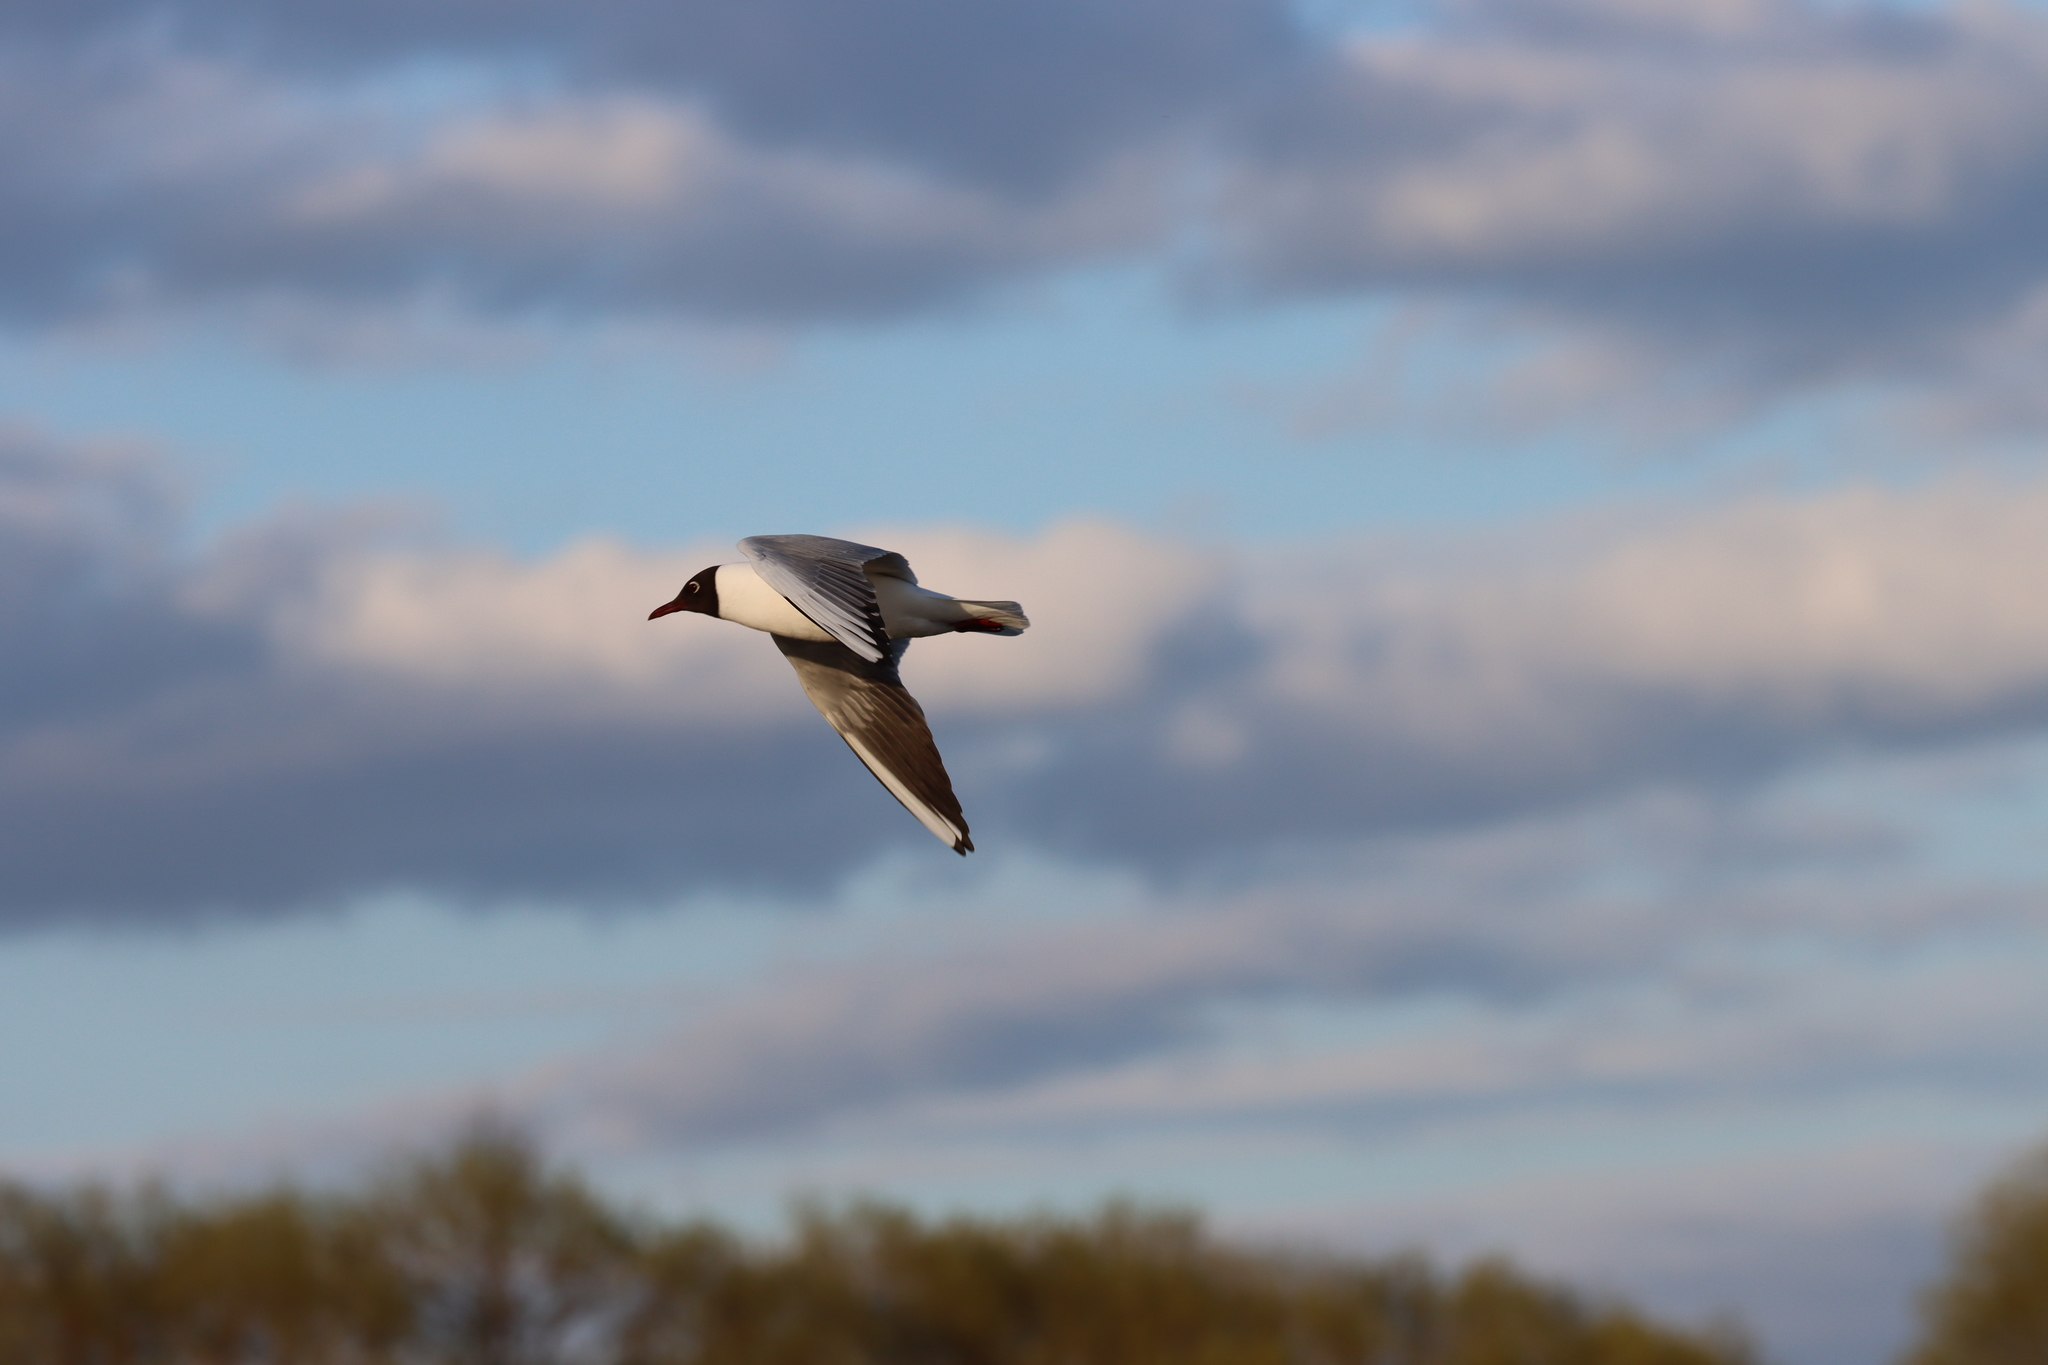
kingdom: Animalia
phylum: Chordata
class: Aves
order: Charadriiformes
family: Laridae
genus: Chroicocephalus
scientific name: Chroicocephalus ridibundus
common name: Black-headed gull
